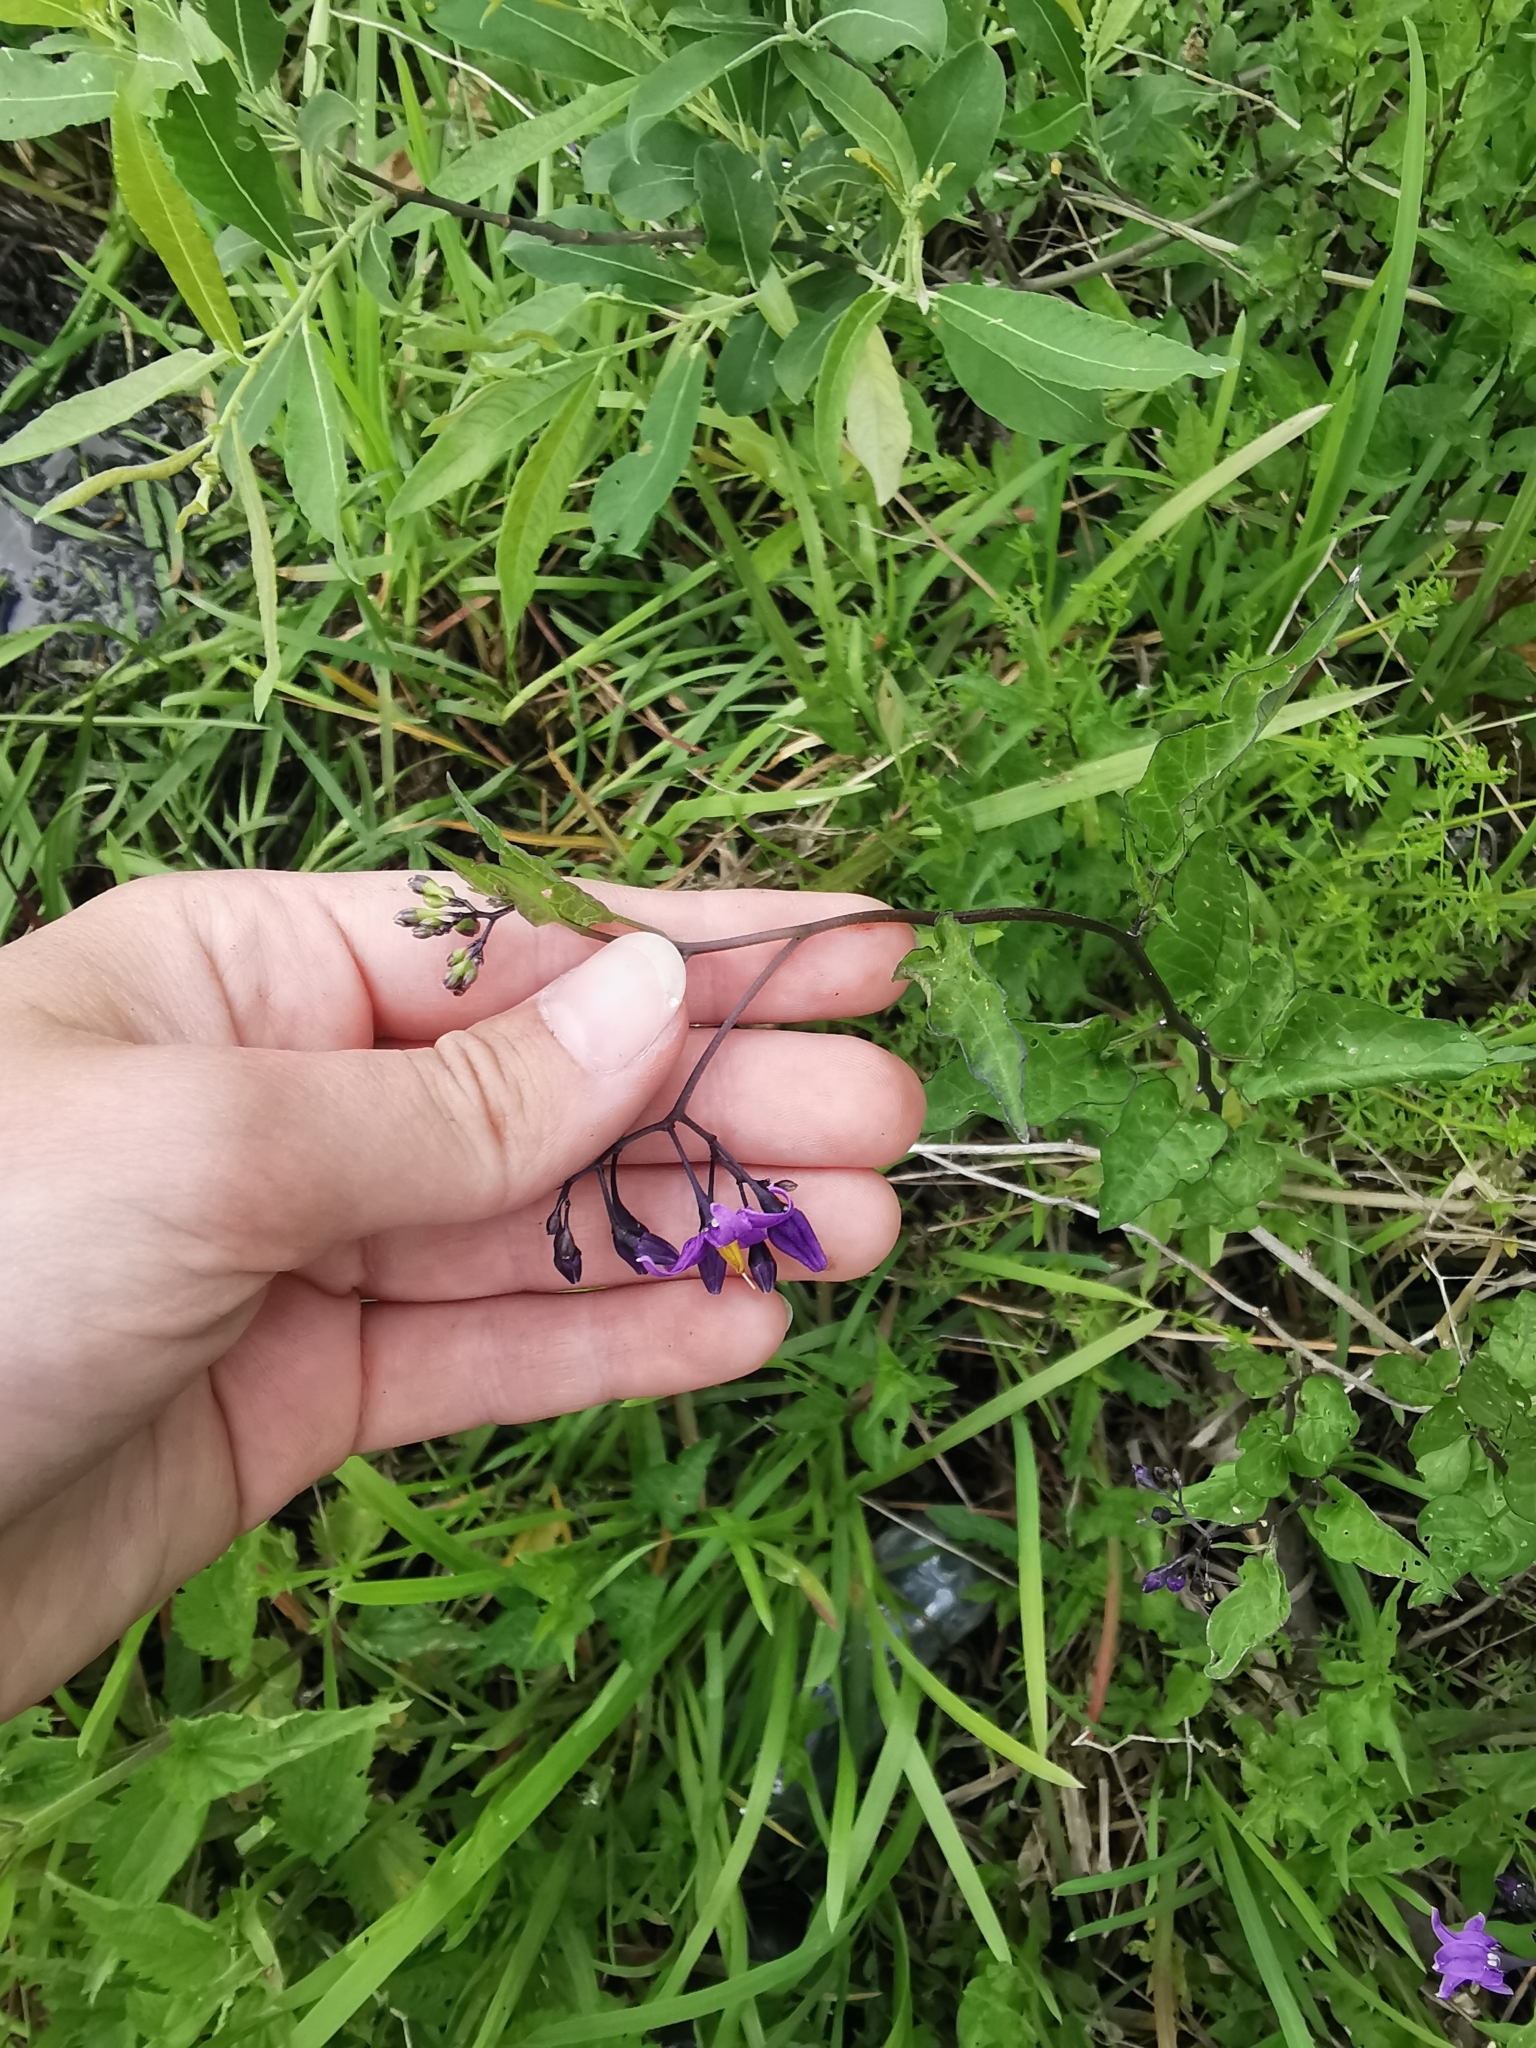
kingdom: Plantae
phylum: Tracheophyta
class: Magnoliopsida
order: Solanales
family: Solanaceae
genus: Solanum
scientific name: Solanum dulcamara
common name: Climbing nightshade
